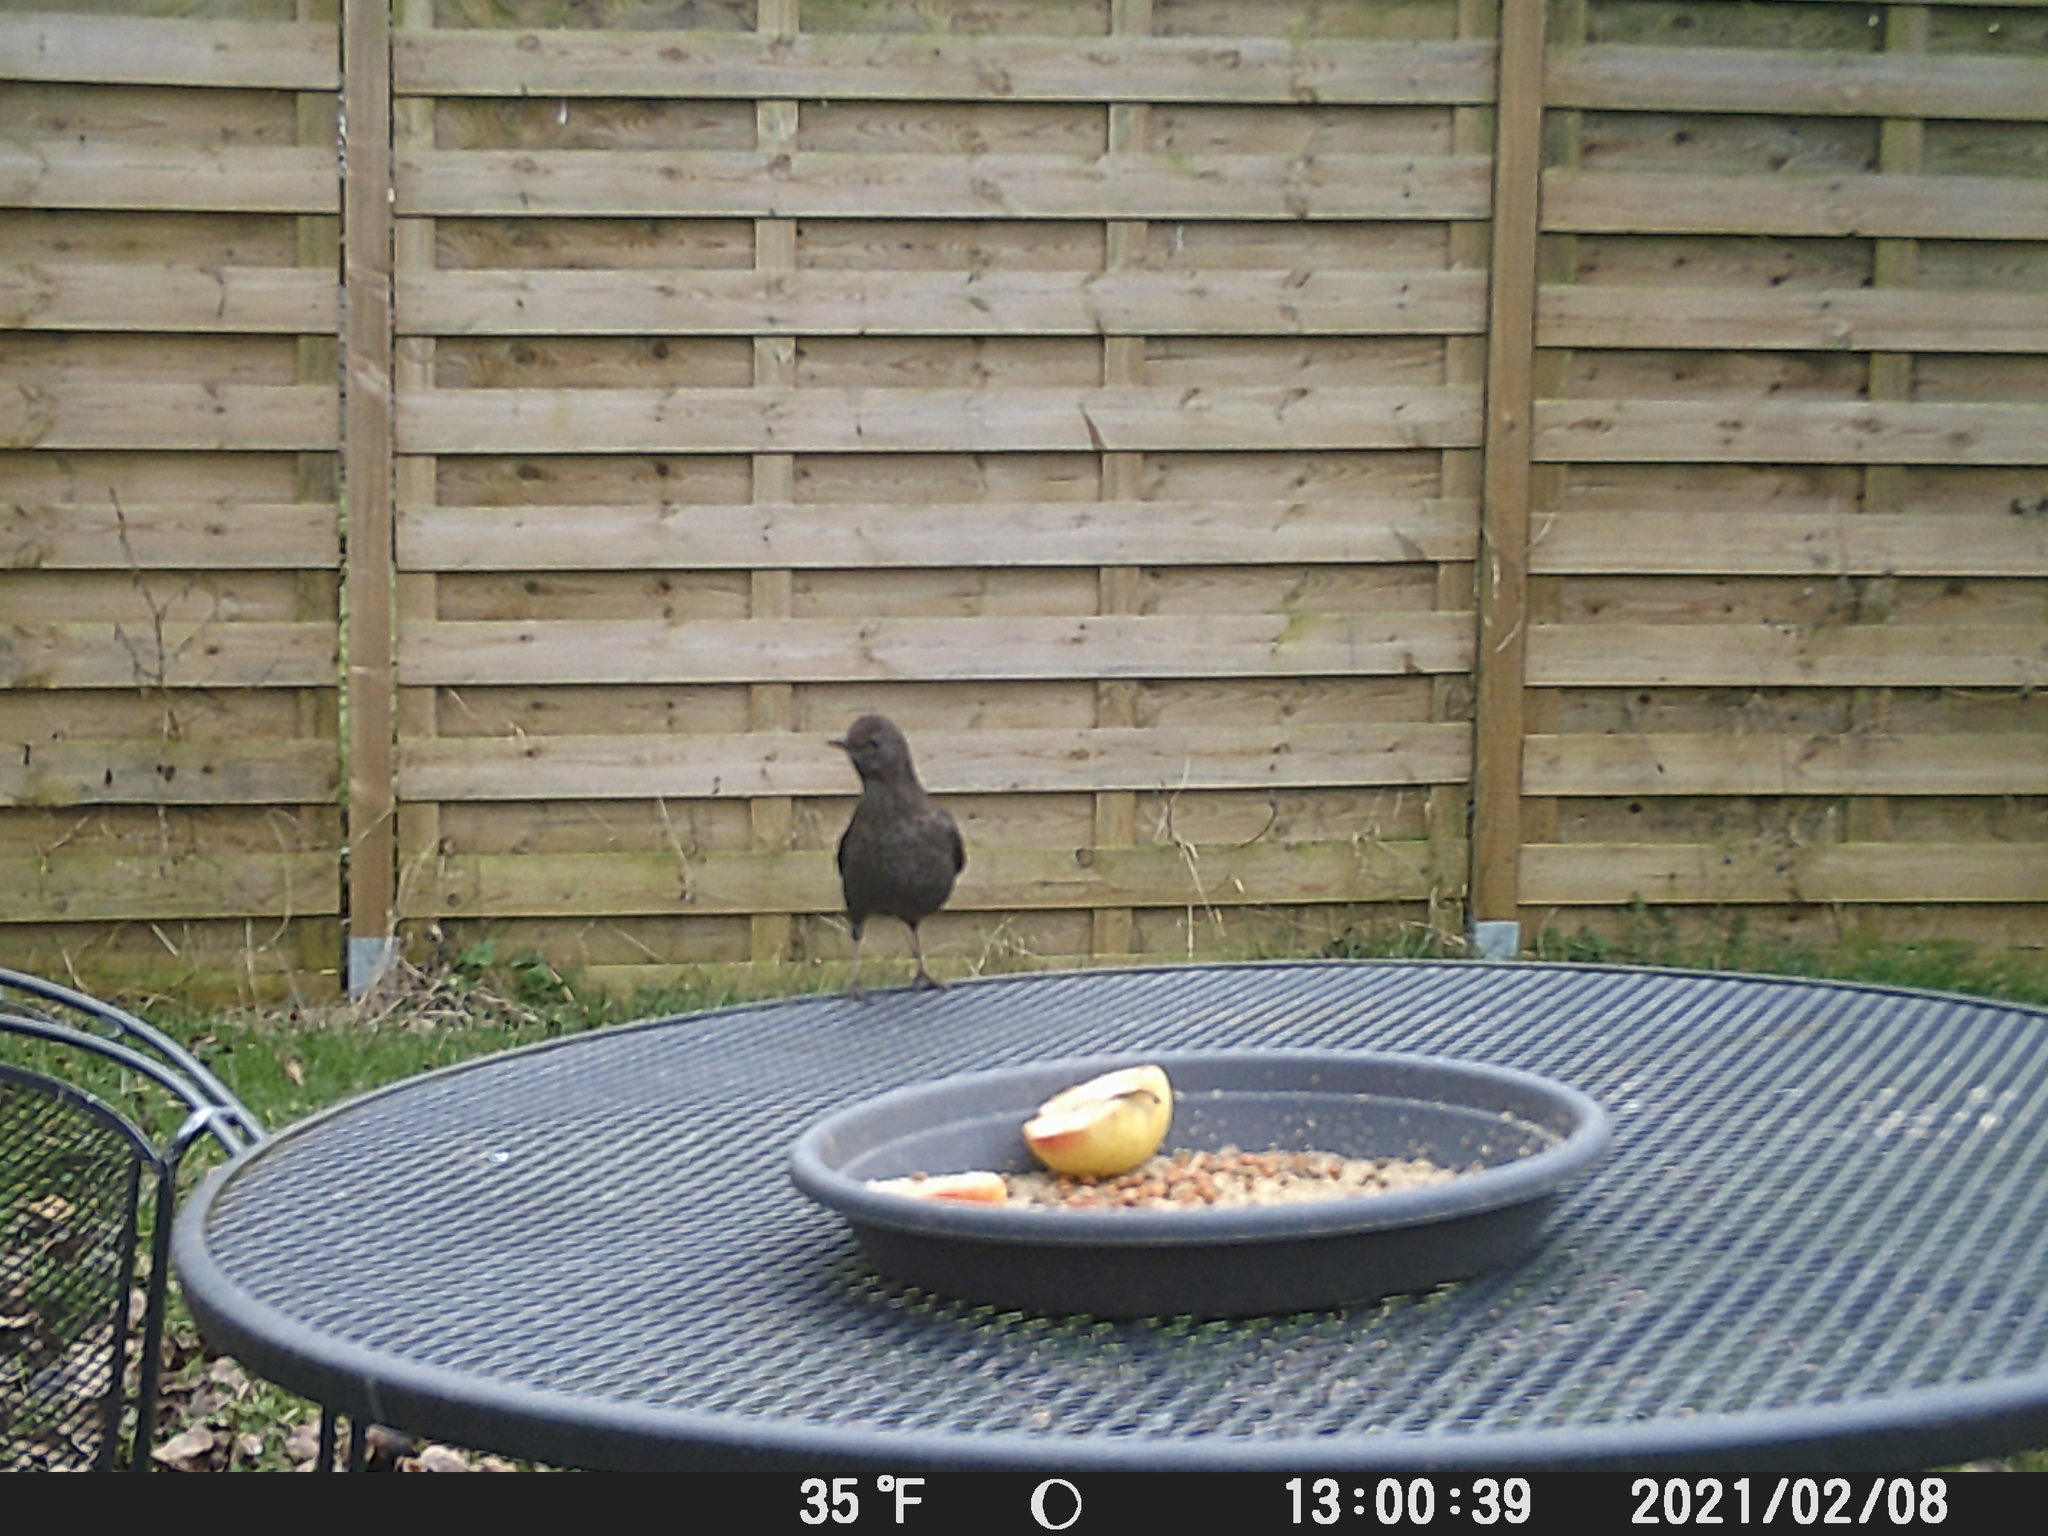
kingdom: Animalia
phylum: Chordata
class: Aves
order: Passeriformes
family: Turdidae
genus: Turdus
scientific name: Turdus merula
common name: Common blackbird
